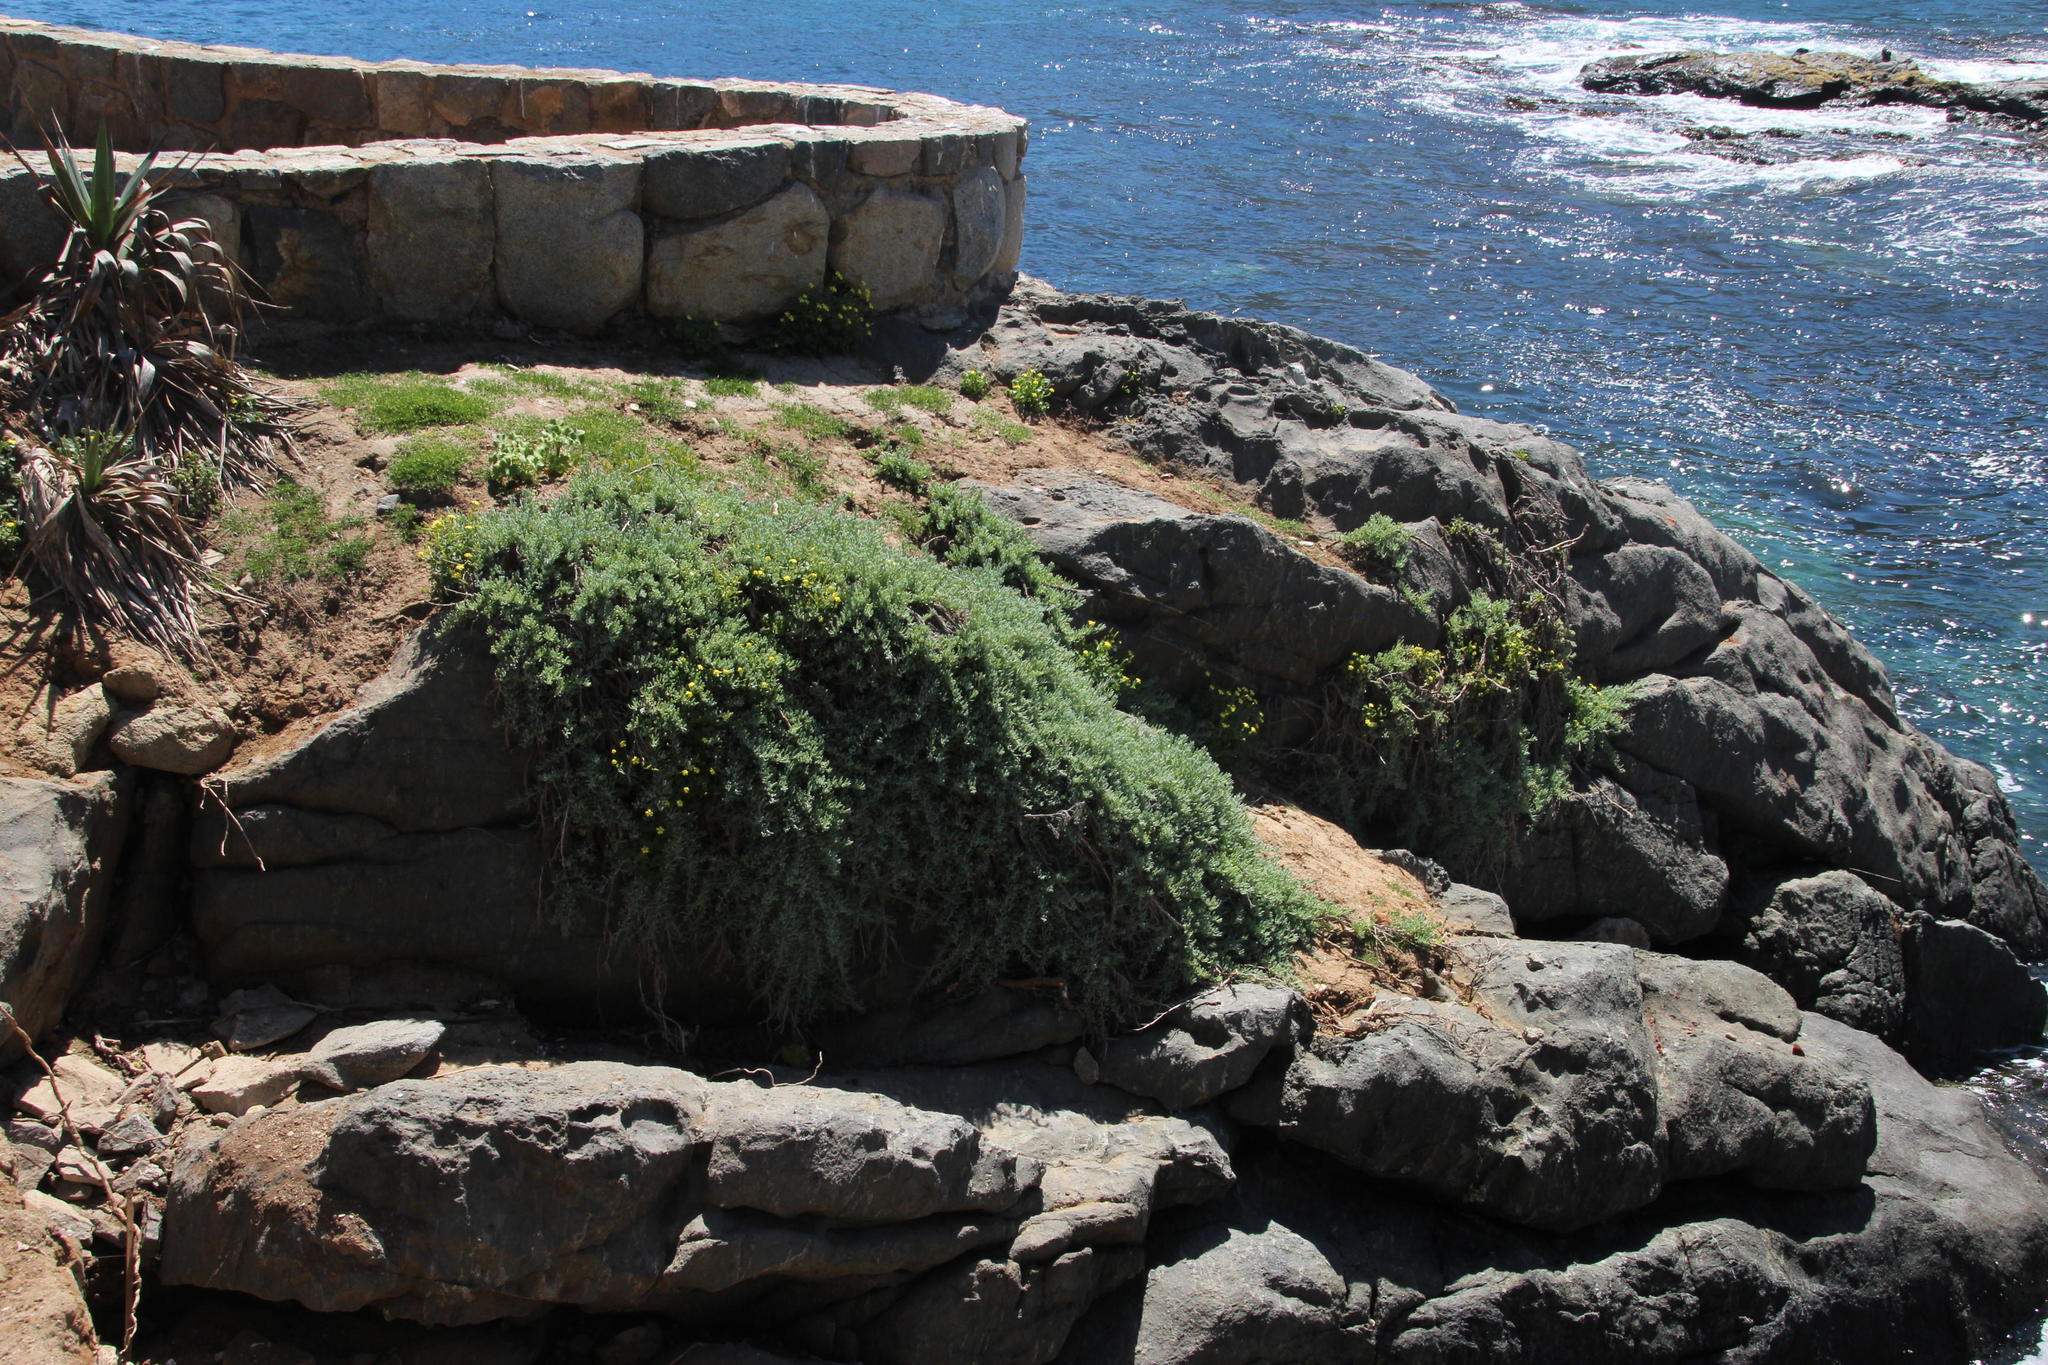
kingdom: Plantae
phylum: Tracheophyta
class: Magnoliopsida
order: Solanales
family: Solanaceae
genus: Nolana
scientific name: Nolana crassulifolia
